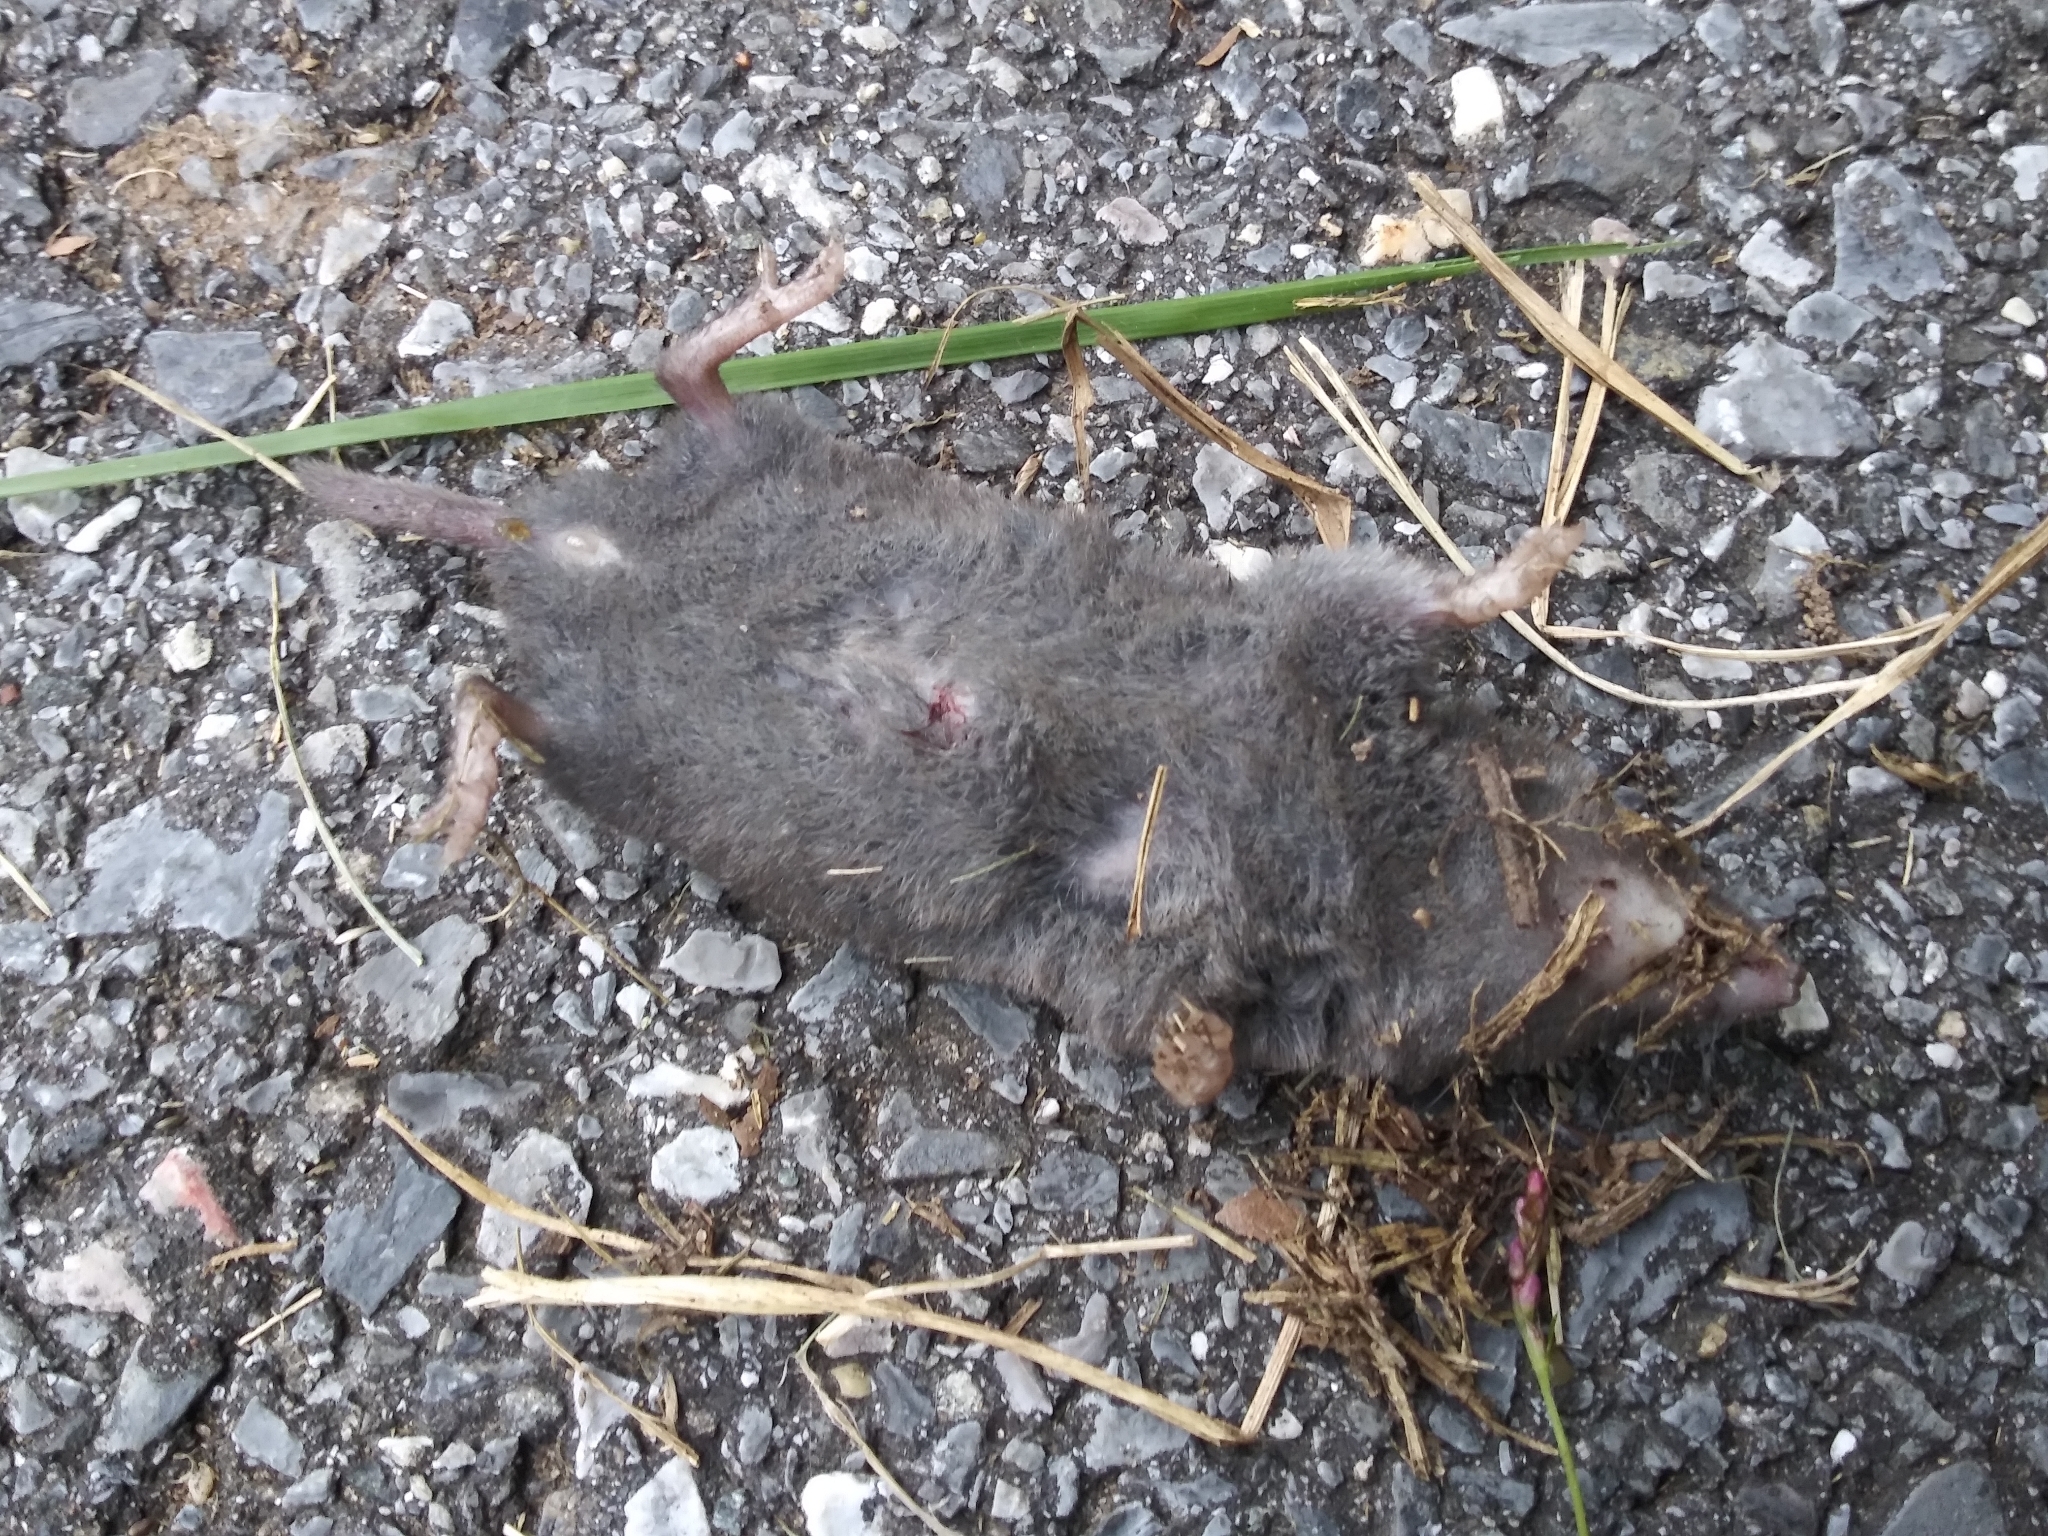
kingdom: Animalia
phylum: Chordata
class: Mammalia
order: Soricomorpha
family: Soricidae
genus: Blarina
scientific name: Blarina brevicauda
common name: Northern short-tailed shrew
